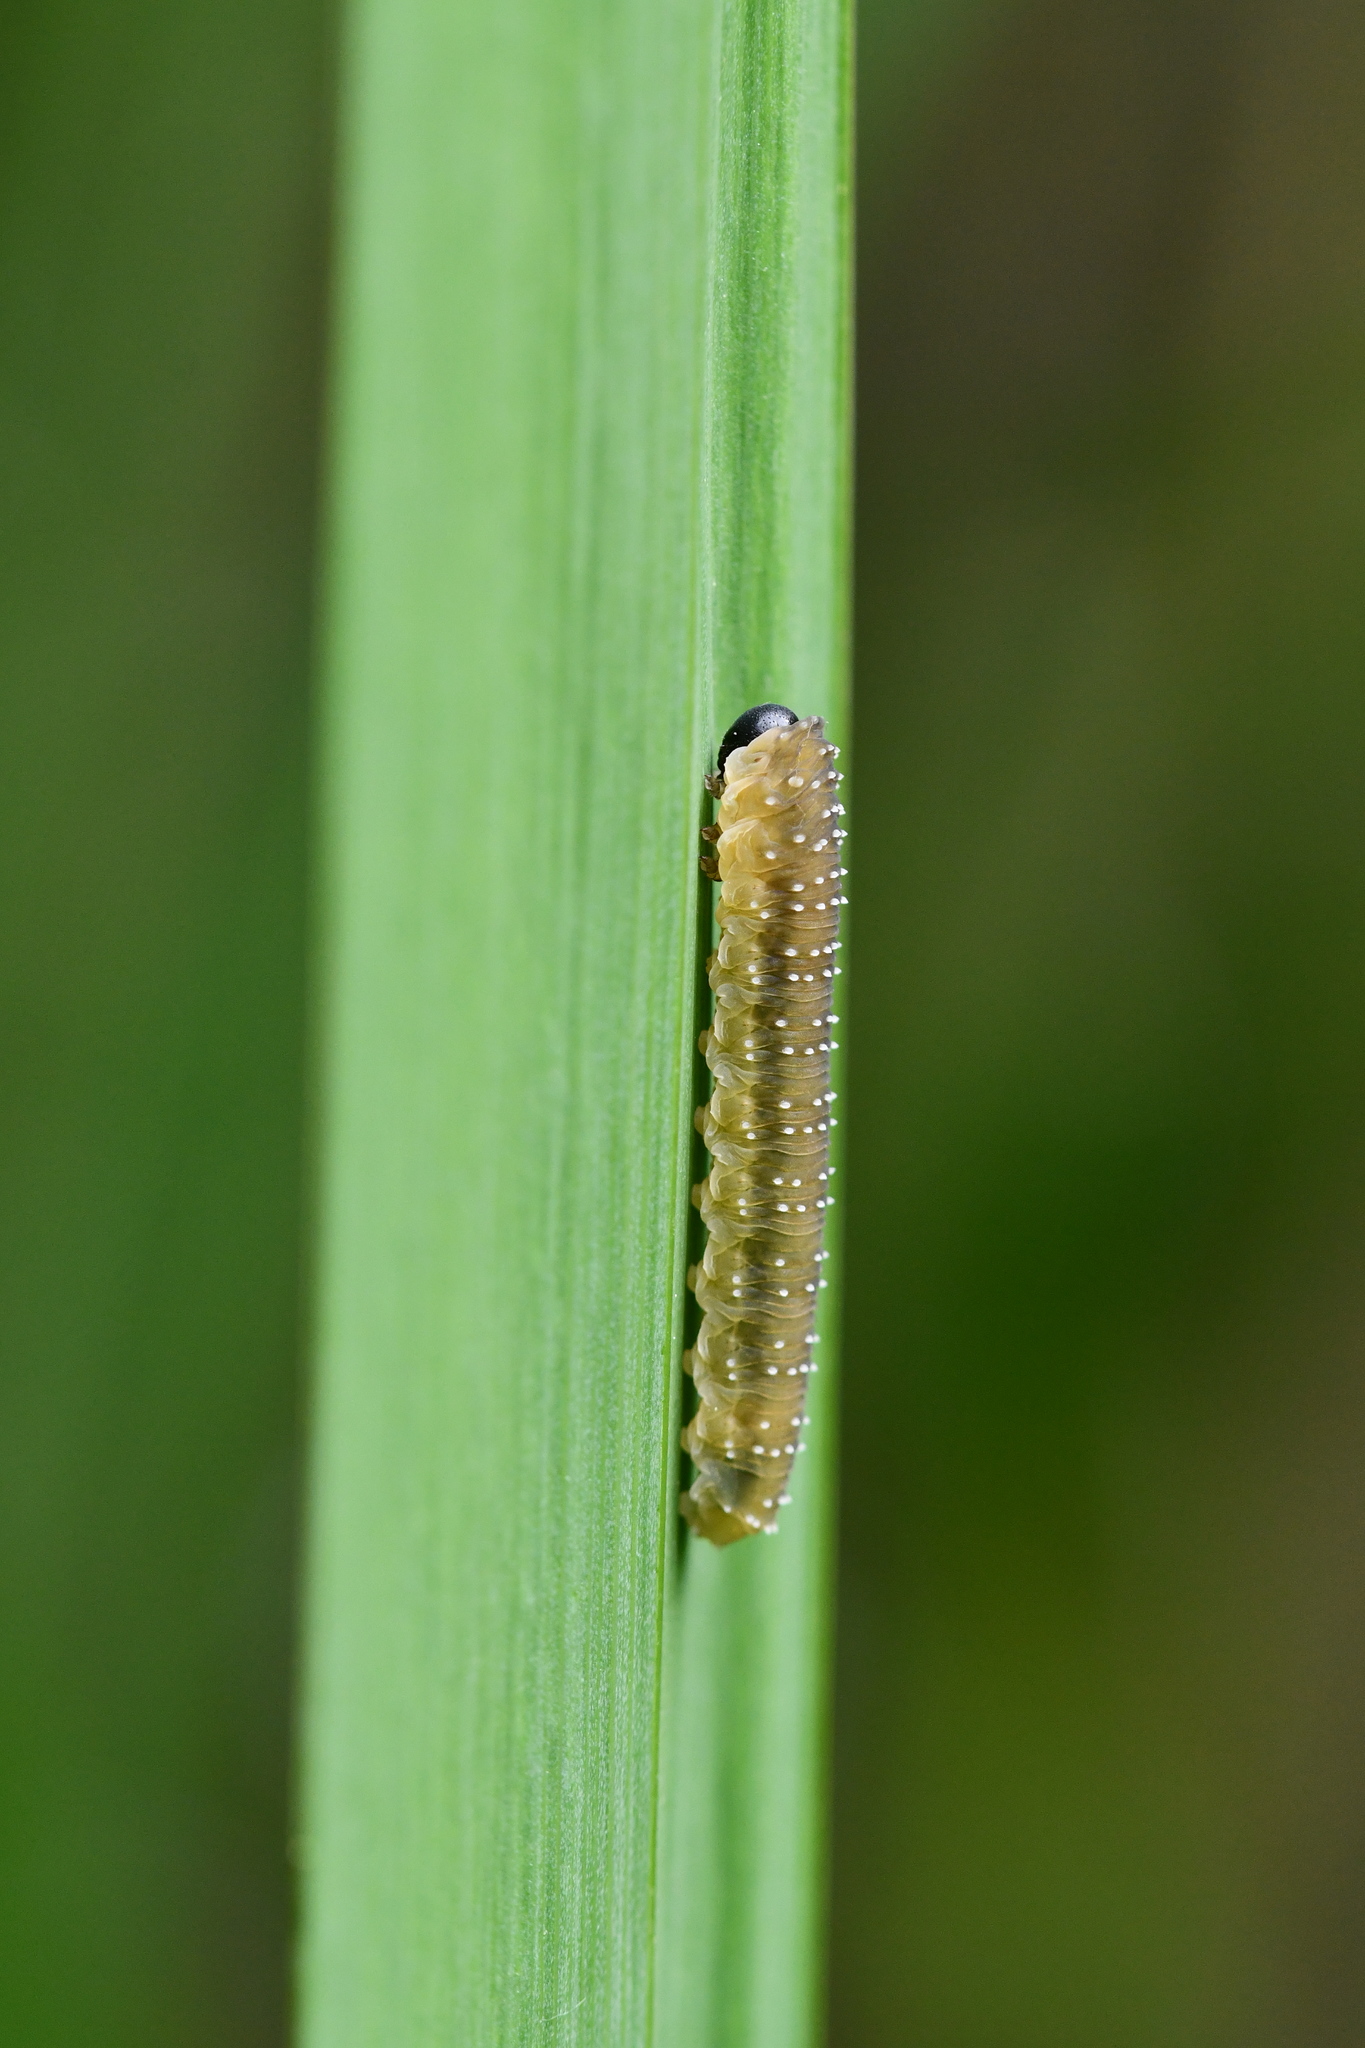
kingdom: Animalia
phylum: Arthropoda
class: Insecta
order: Hymenoptera
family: Tenthredinidae
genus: Rhadinoceraea
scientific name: Rhadinoceraea micans
